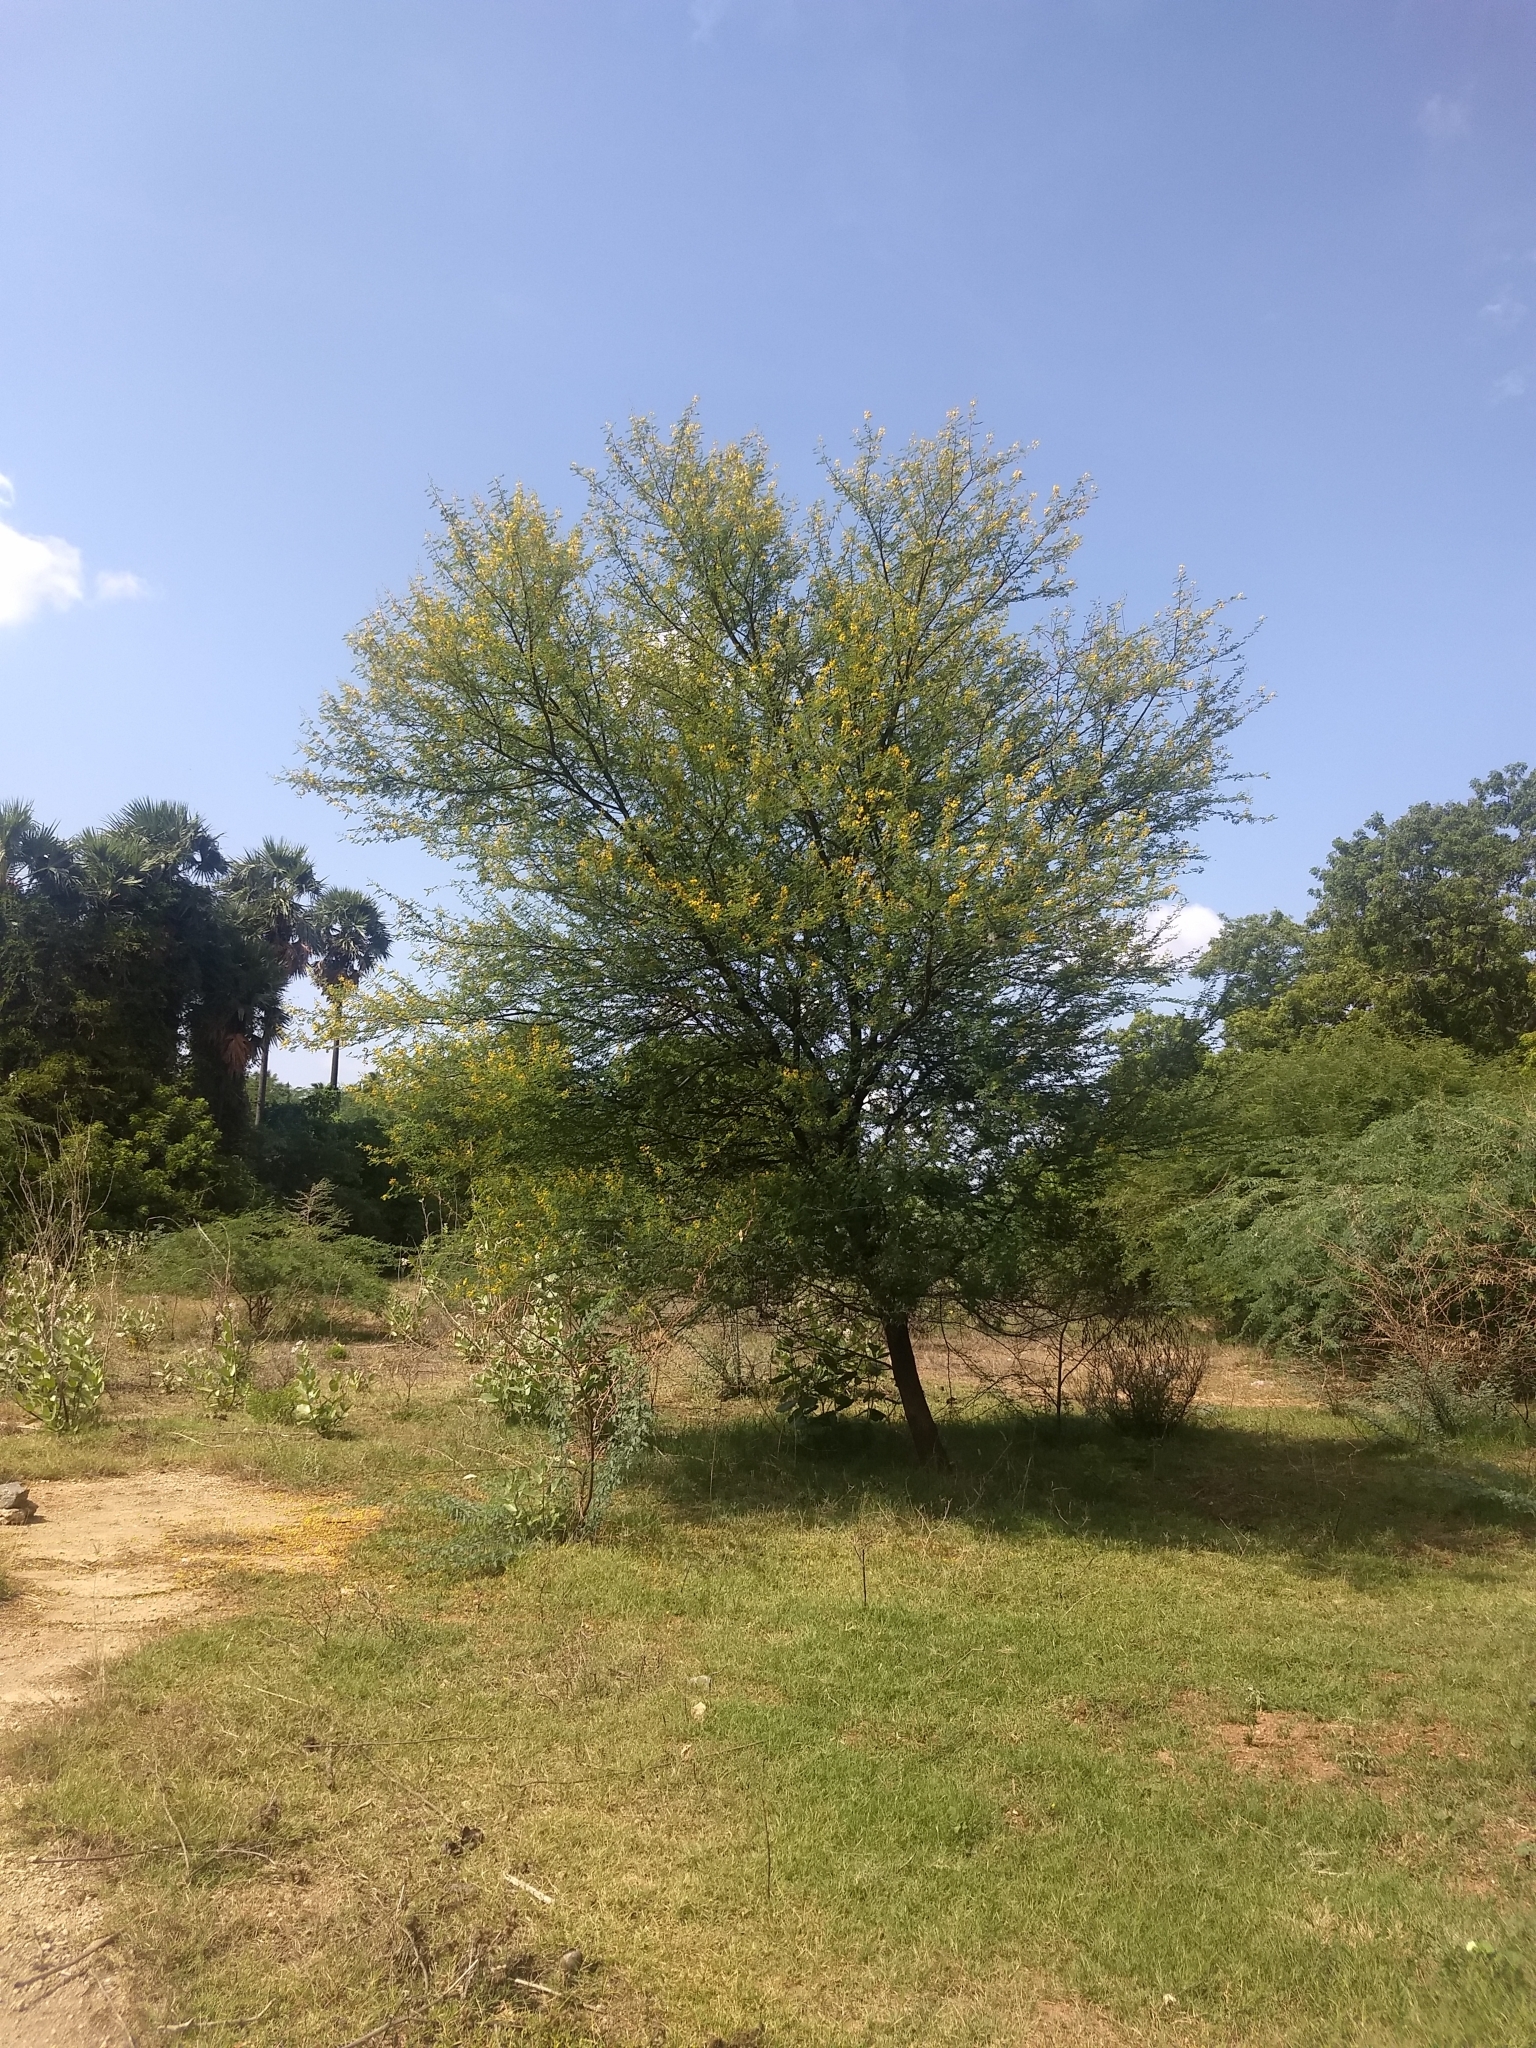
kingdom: Plantae
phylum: Tracheophyta
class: Magnoliopsida
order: Fabales
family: Fabaceae
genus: Vachellia
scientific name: Vachellia nilotica
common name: Arabic gumtree
